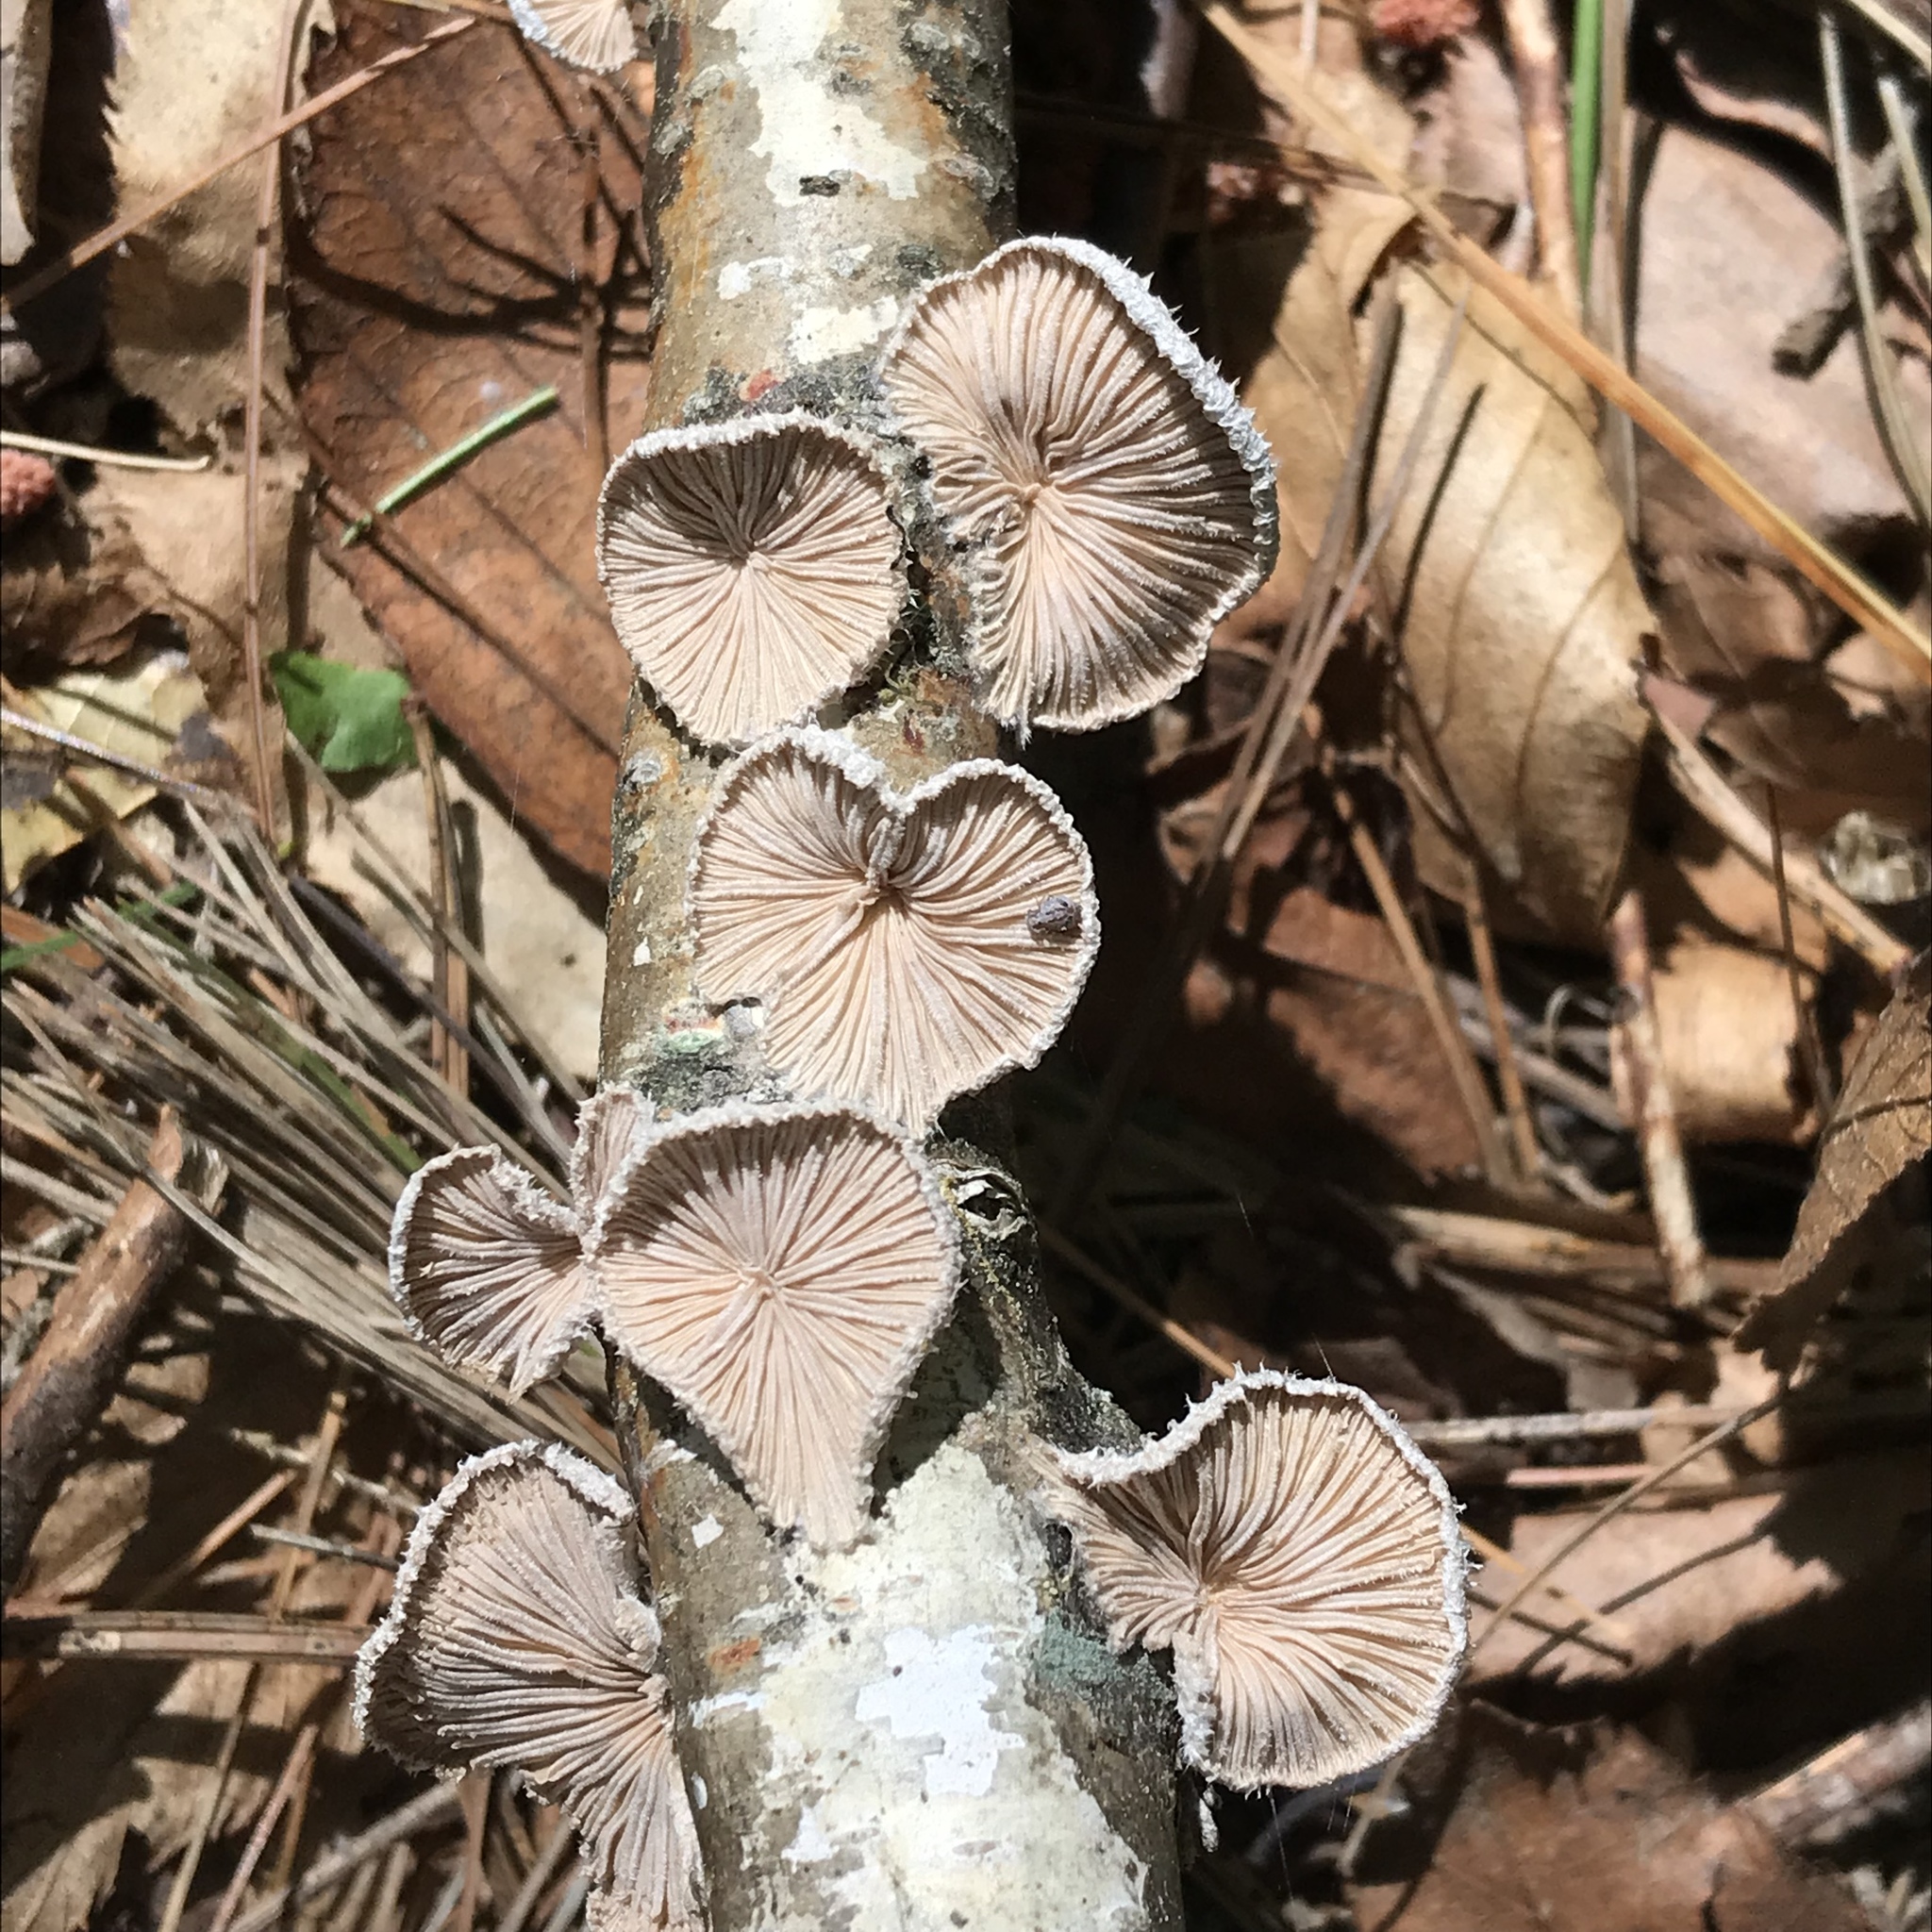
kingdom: Fungi
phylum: Basidiomycota
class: Agaricomycetes
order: Agaricales
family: Schizophyllaceae
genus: Schizophyllum
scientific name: Schizophyllum commune
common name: Common porecrust
